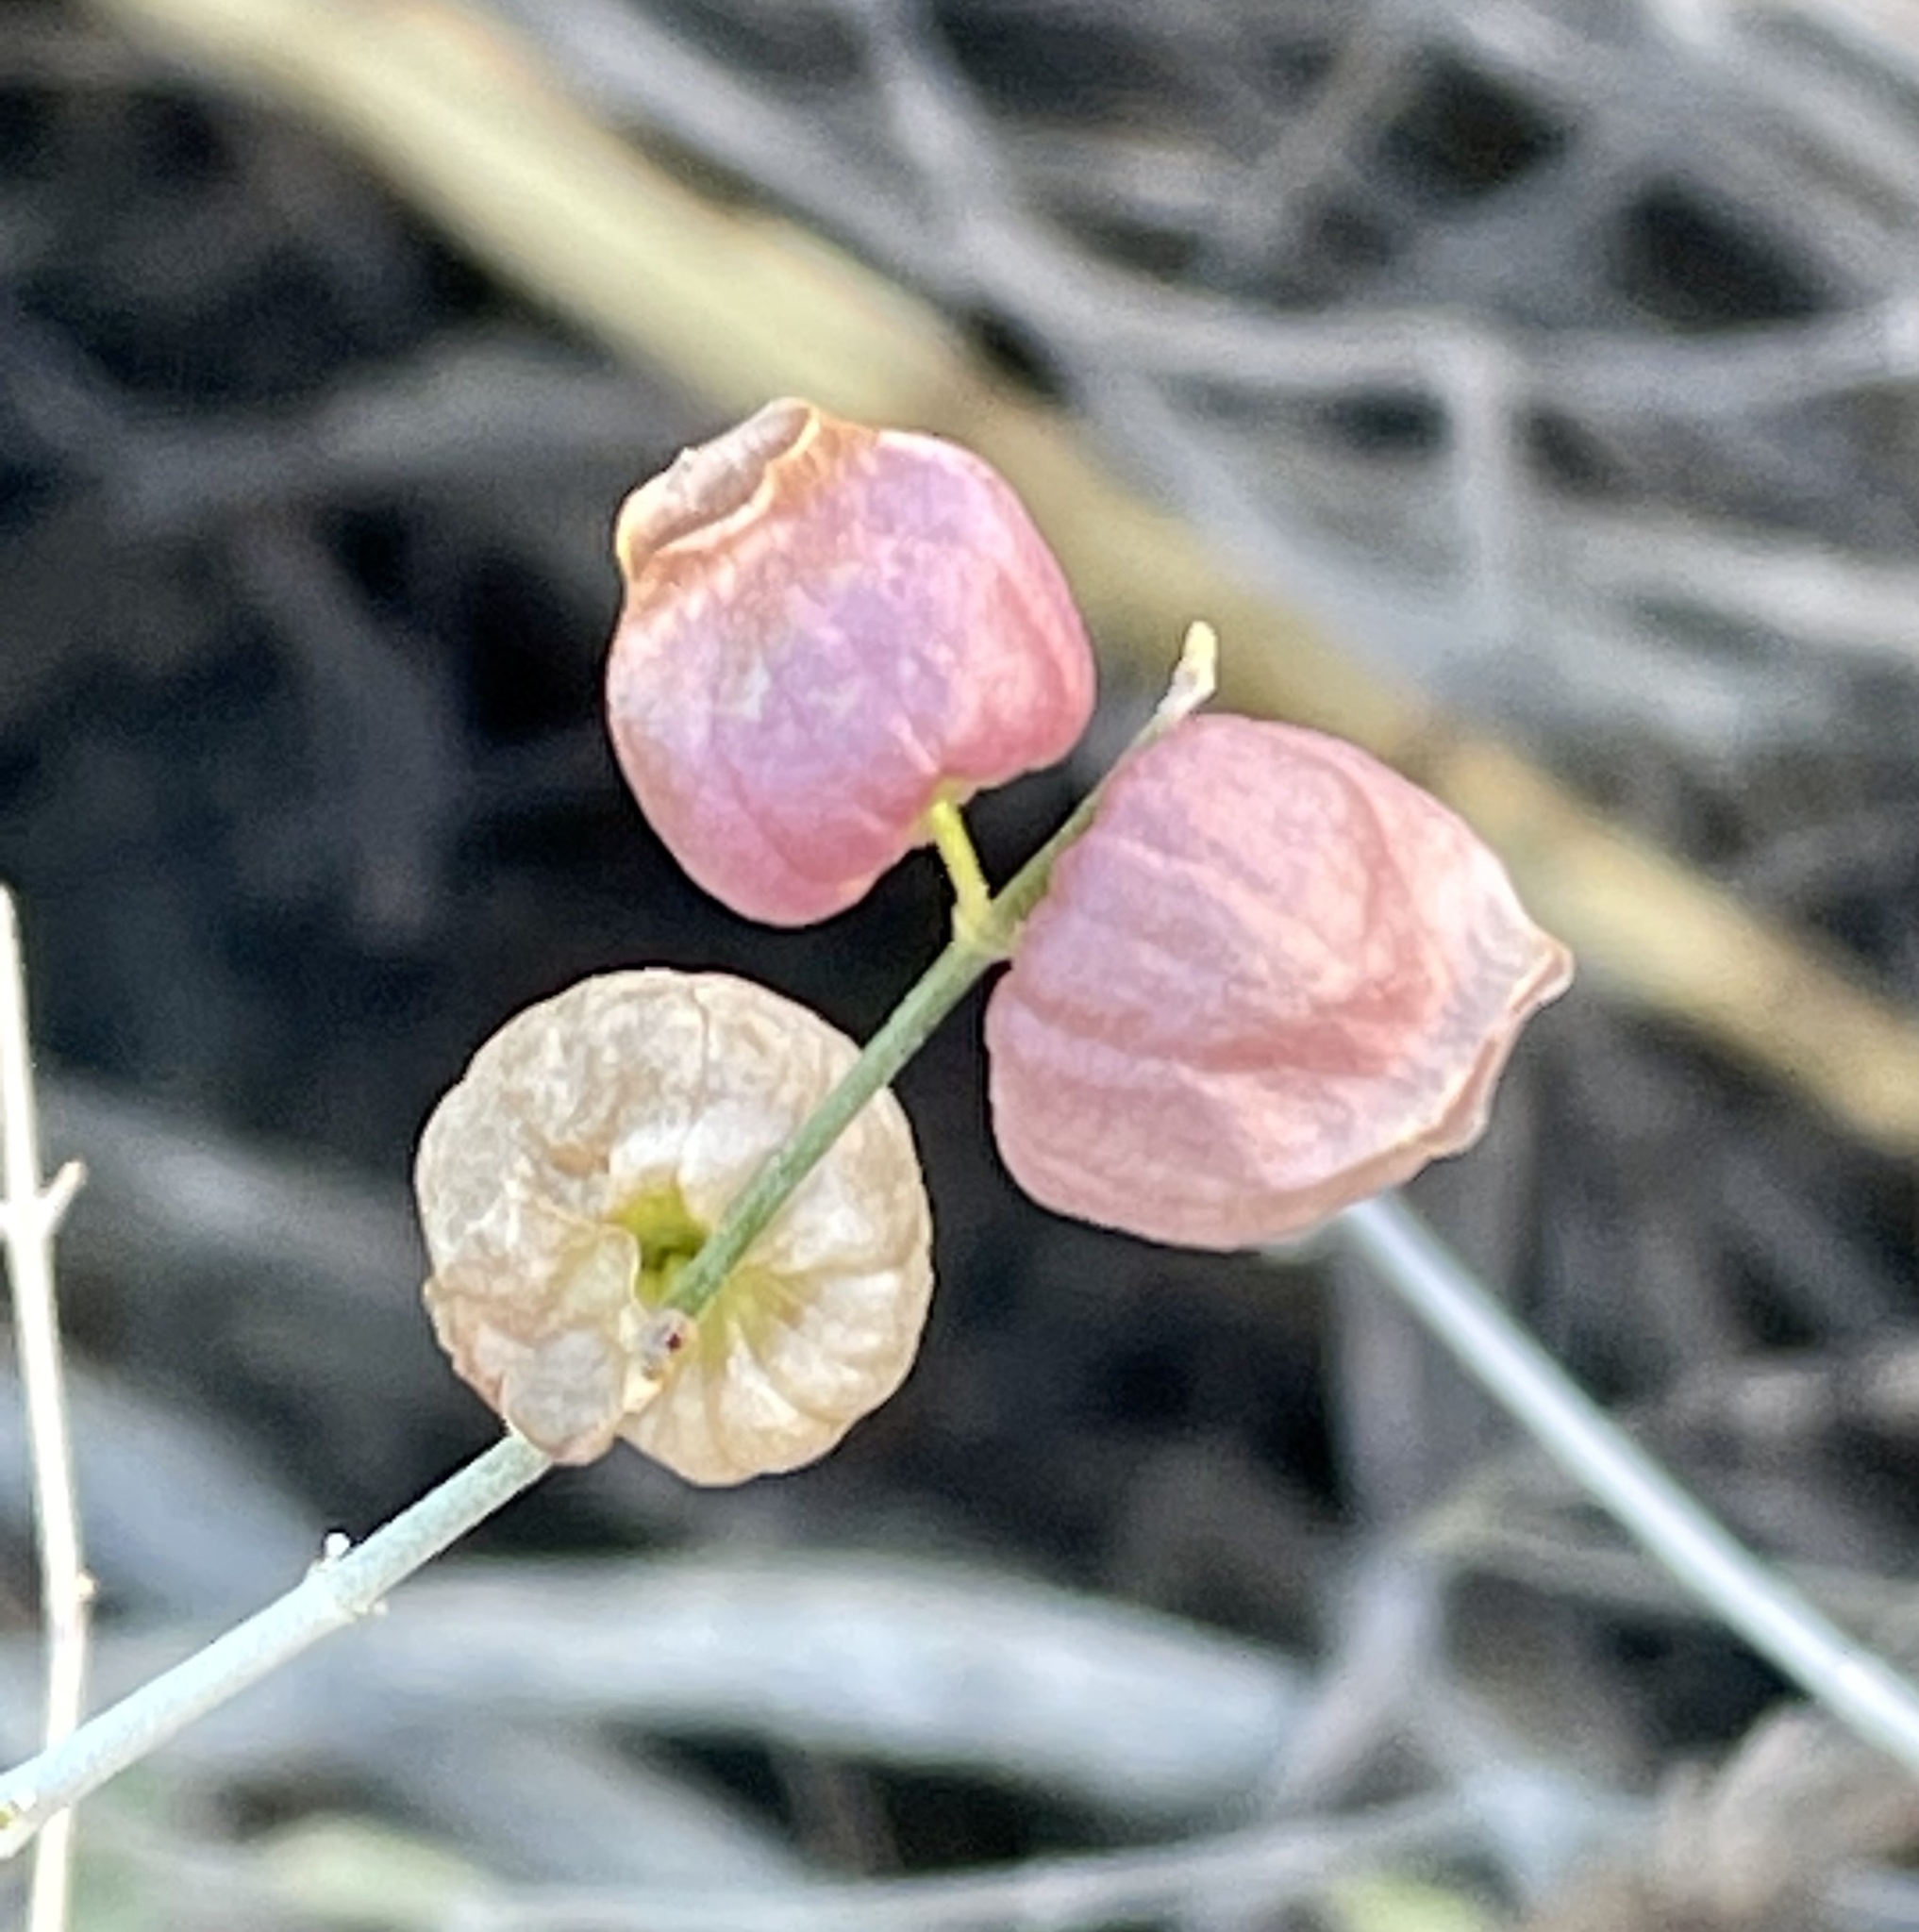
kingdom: Plantae
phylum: Tracheophyta
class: Magnoliopsida
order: Lamiales
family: Lamiaceae
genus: Scutellaria
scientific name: Scutellaria mexicana
